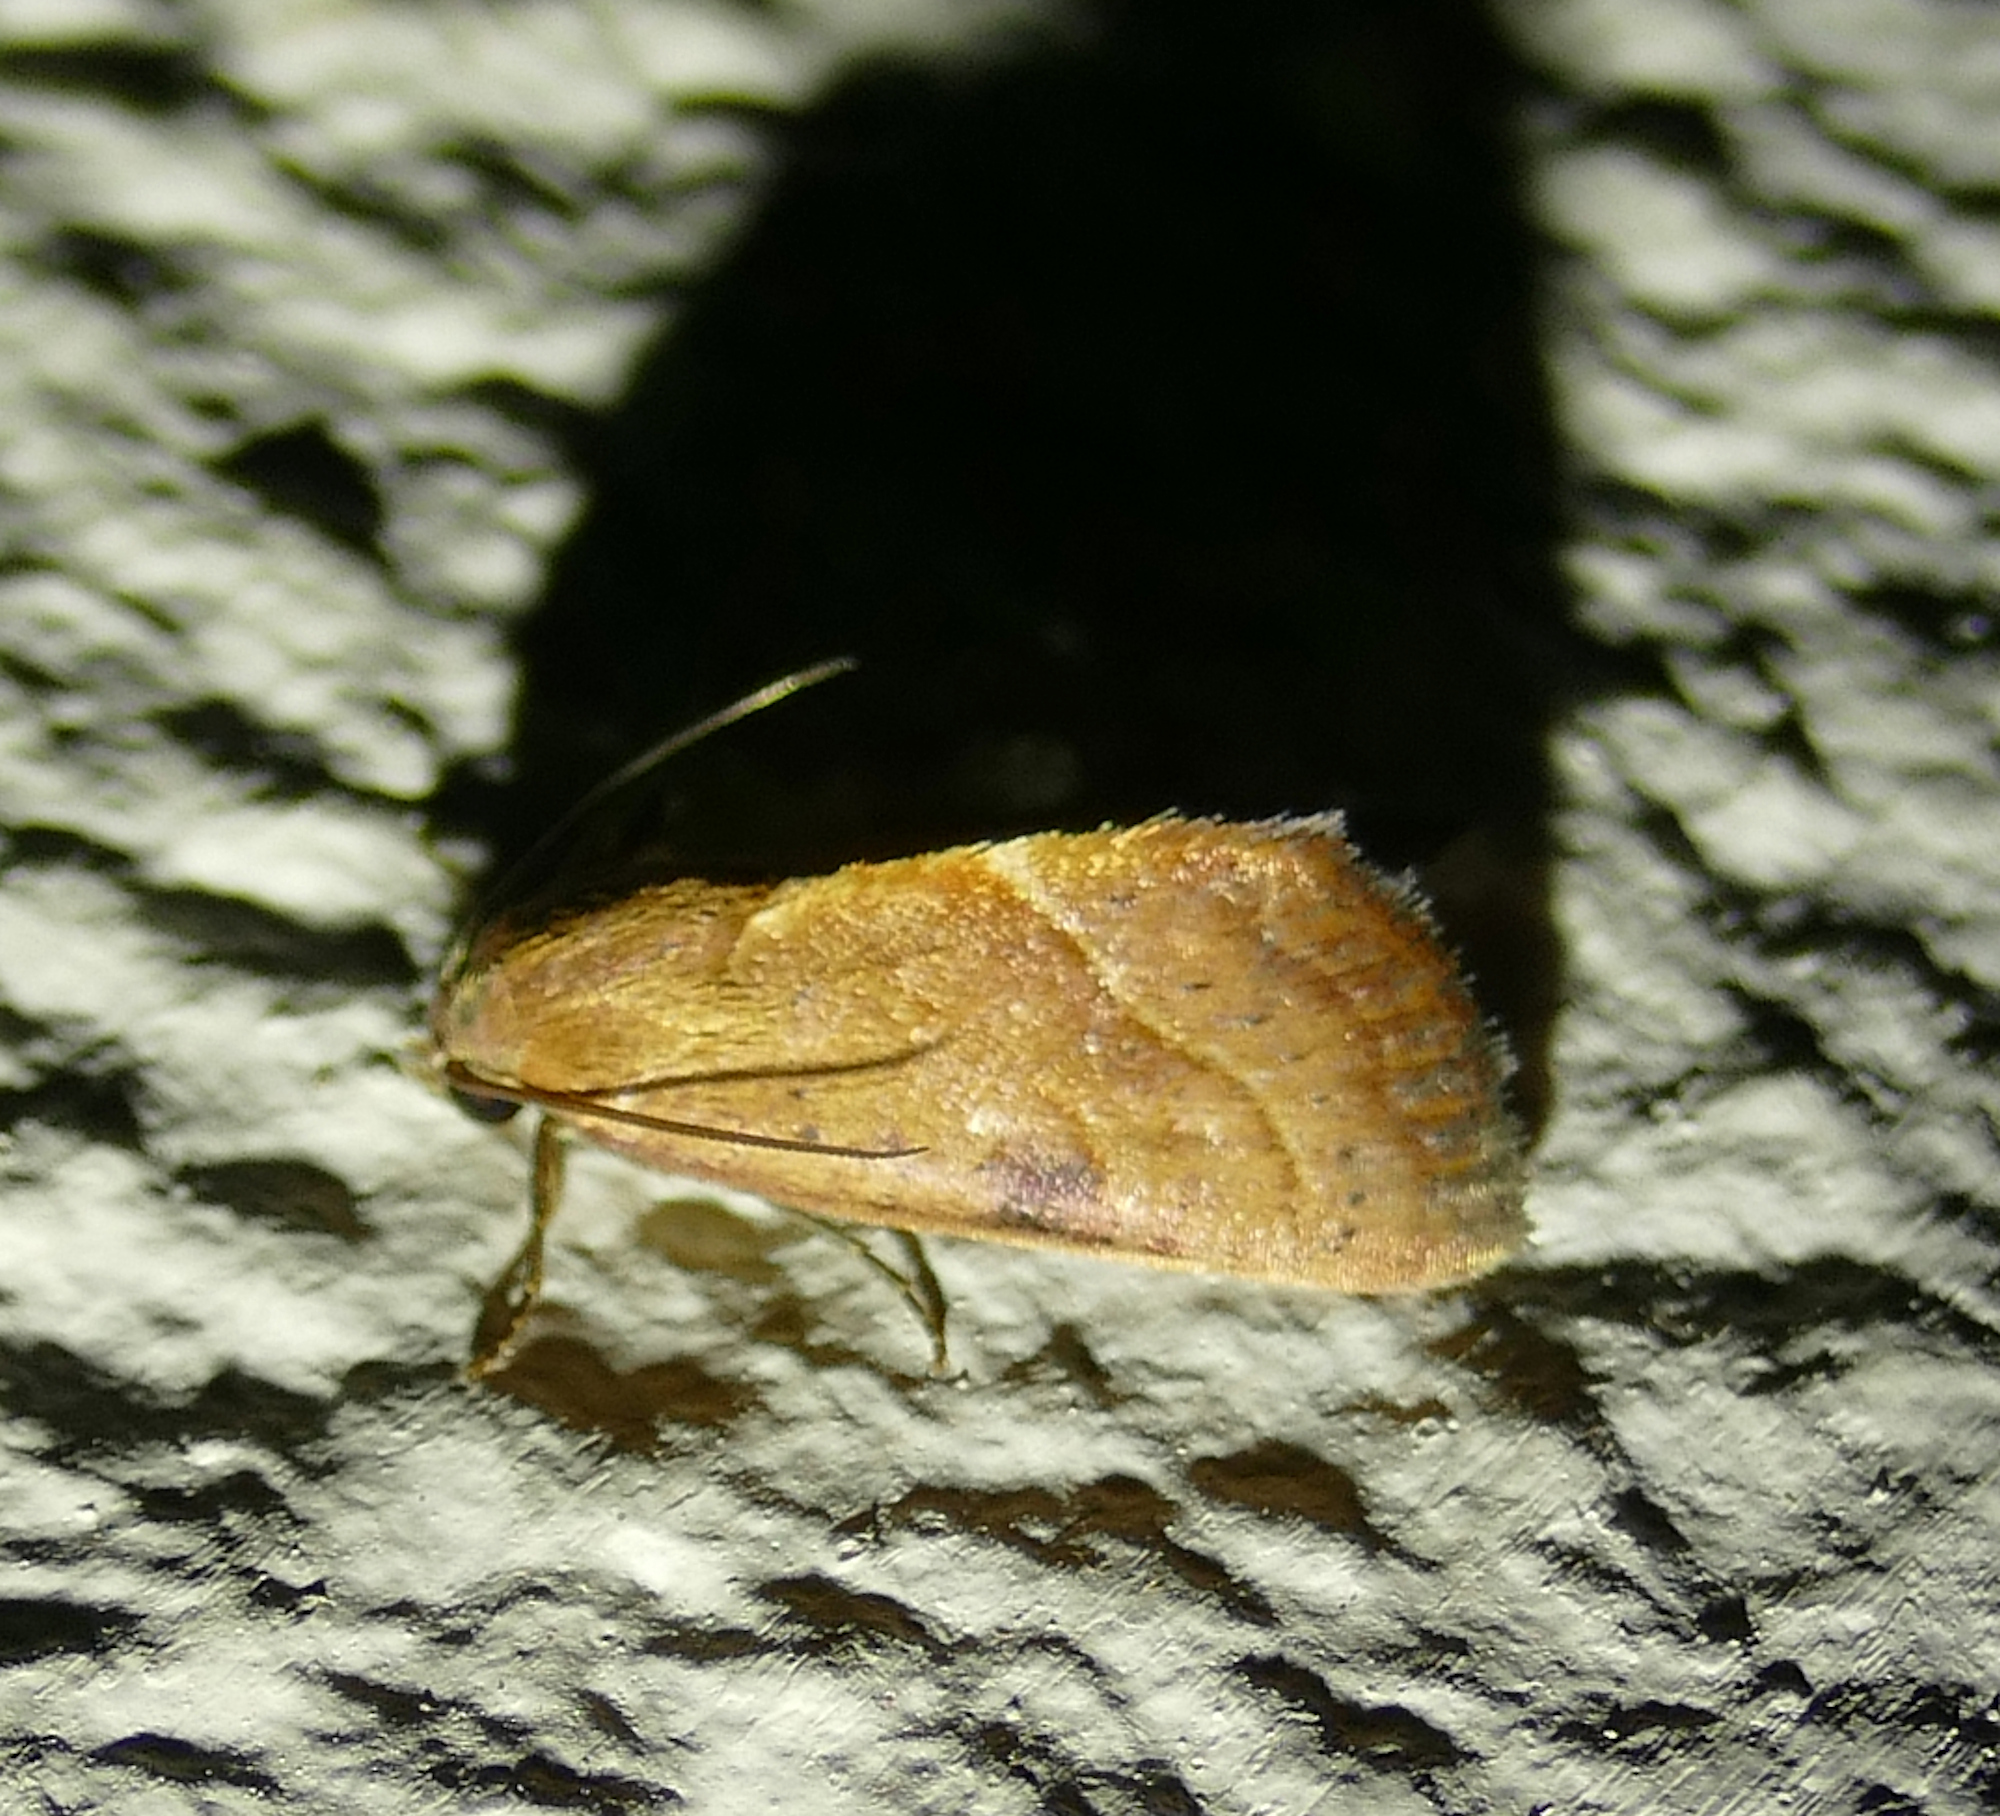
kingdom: Animalia
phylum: Arthropoda
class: Insecta
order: Lepidoptera
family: Noctuidae
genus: Galgula
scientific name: Galgula partita
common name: Wedgeling
